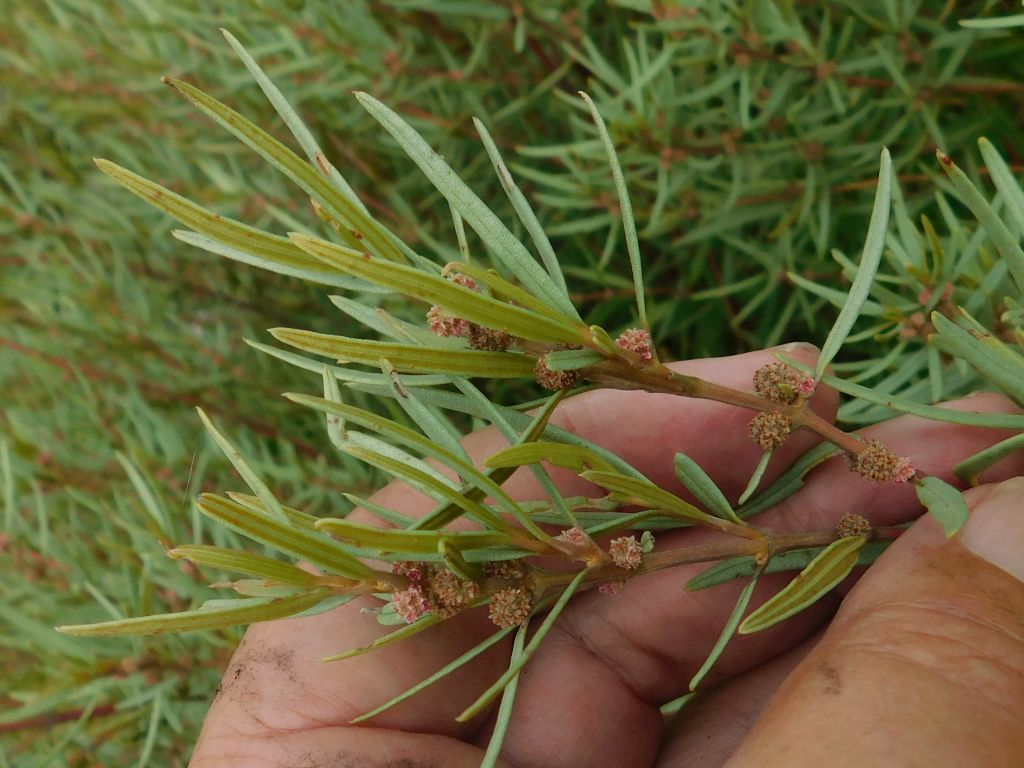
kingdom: Plantae
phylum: Tracheophyta
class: Magnoliopsida
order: Cornales
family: Grubbiaceae
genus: Grubbia
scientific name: Grubbia tomentosa
